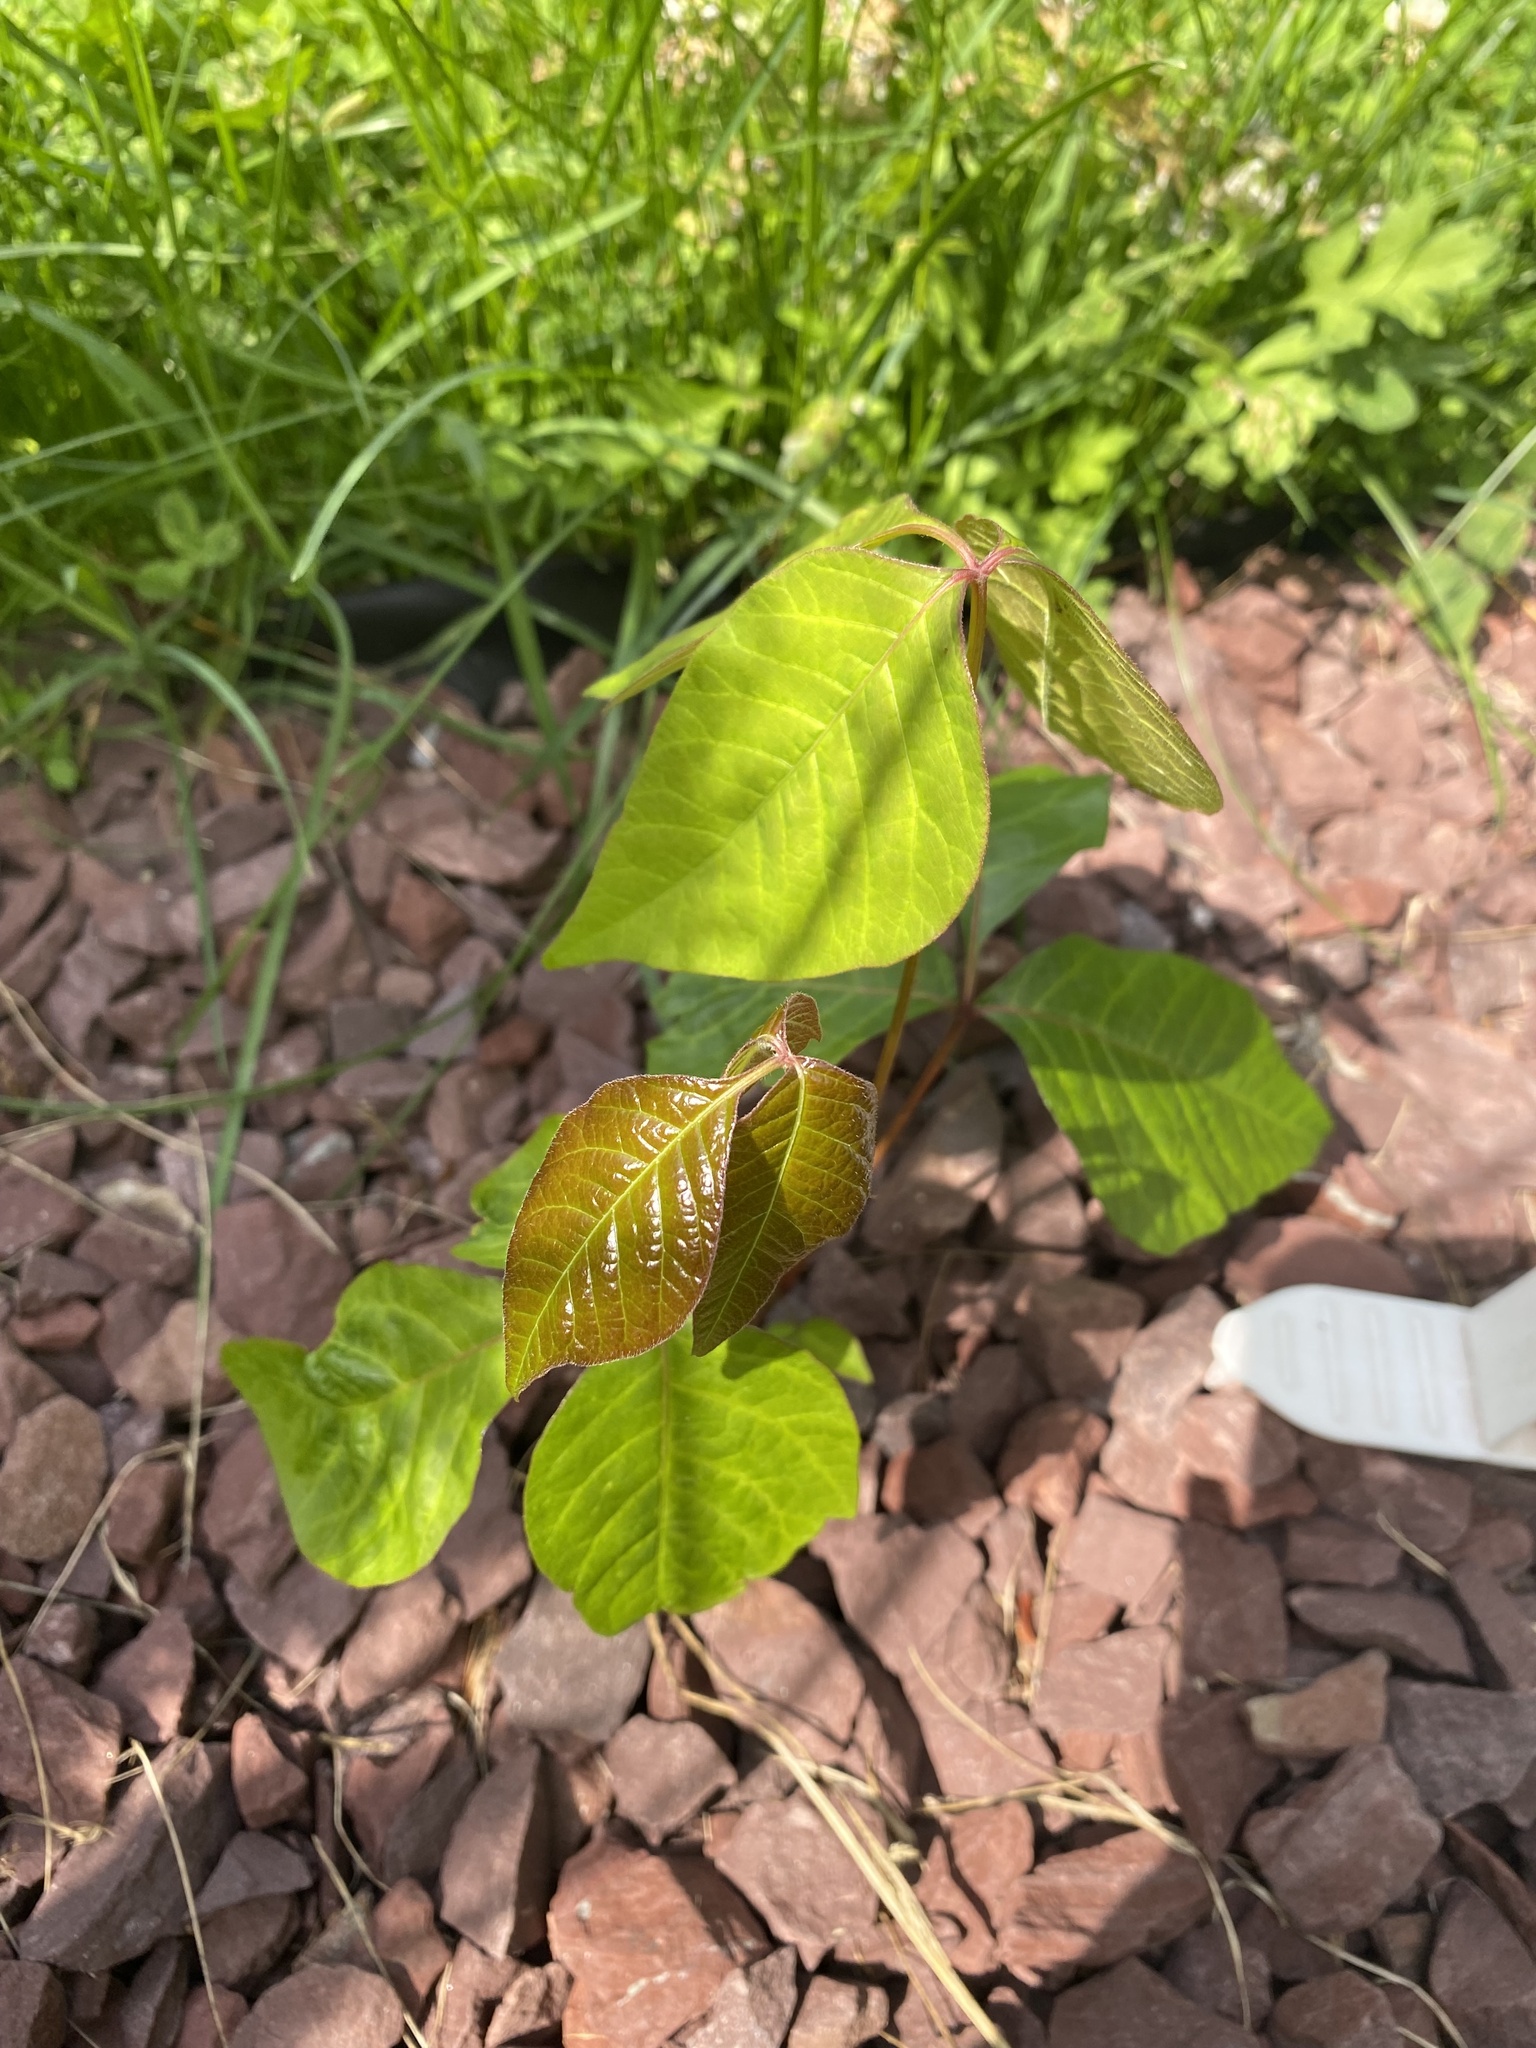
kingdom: Plantae
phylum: Tracheophyta
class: Magnoliopsida
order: Sapindales
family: Anacardiaceae
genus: Toxicodendron
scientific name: Toxicodendron radicans
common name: Poison ivy
